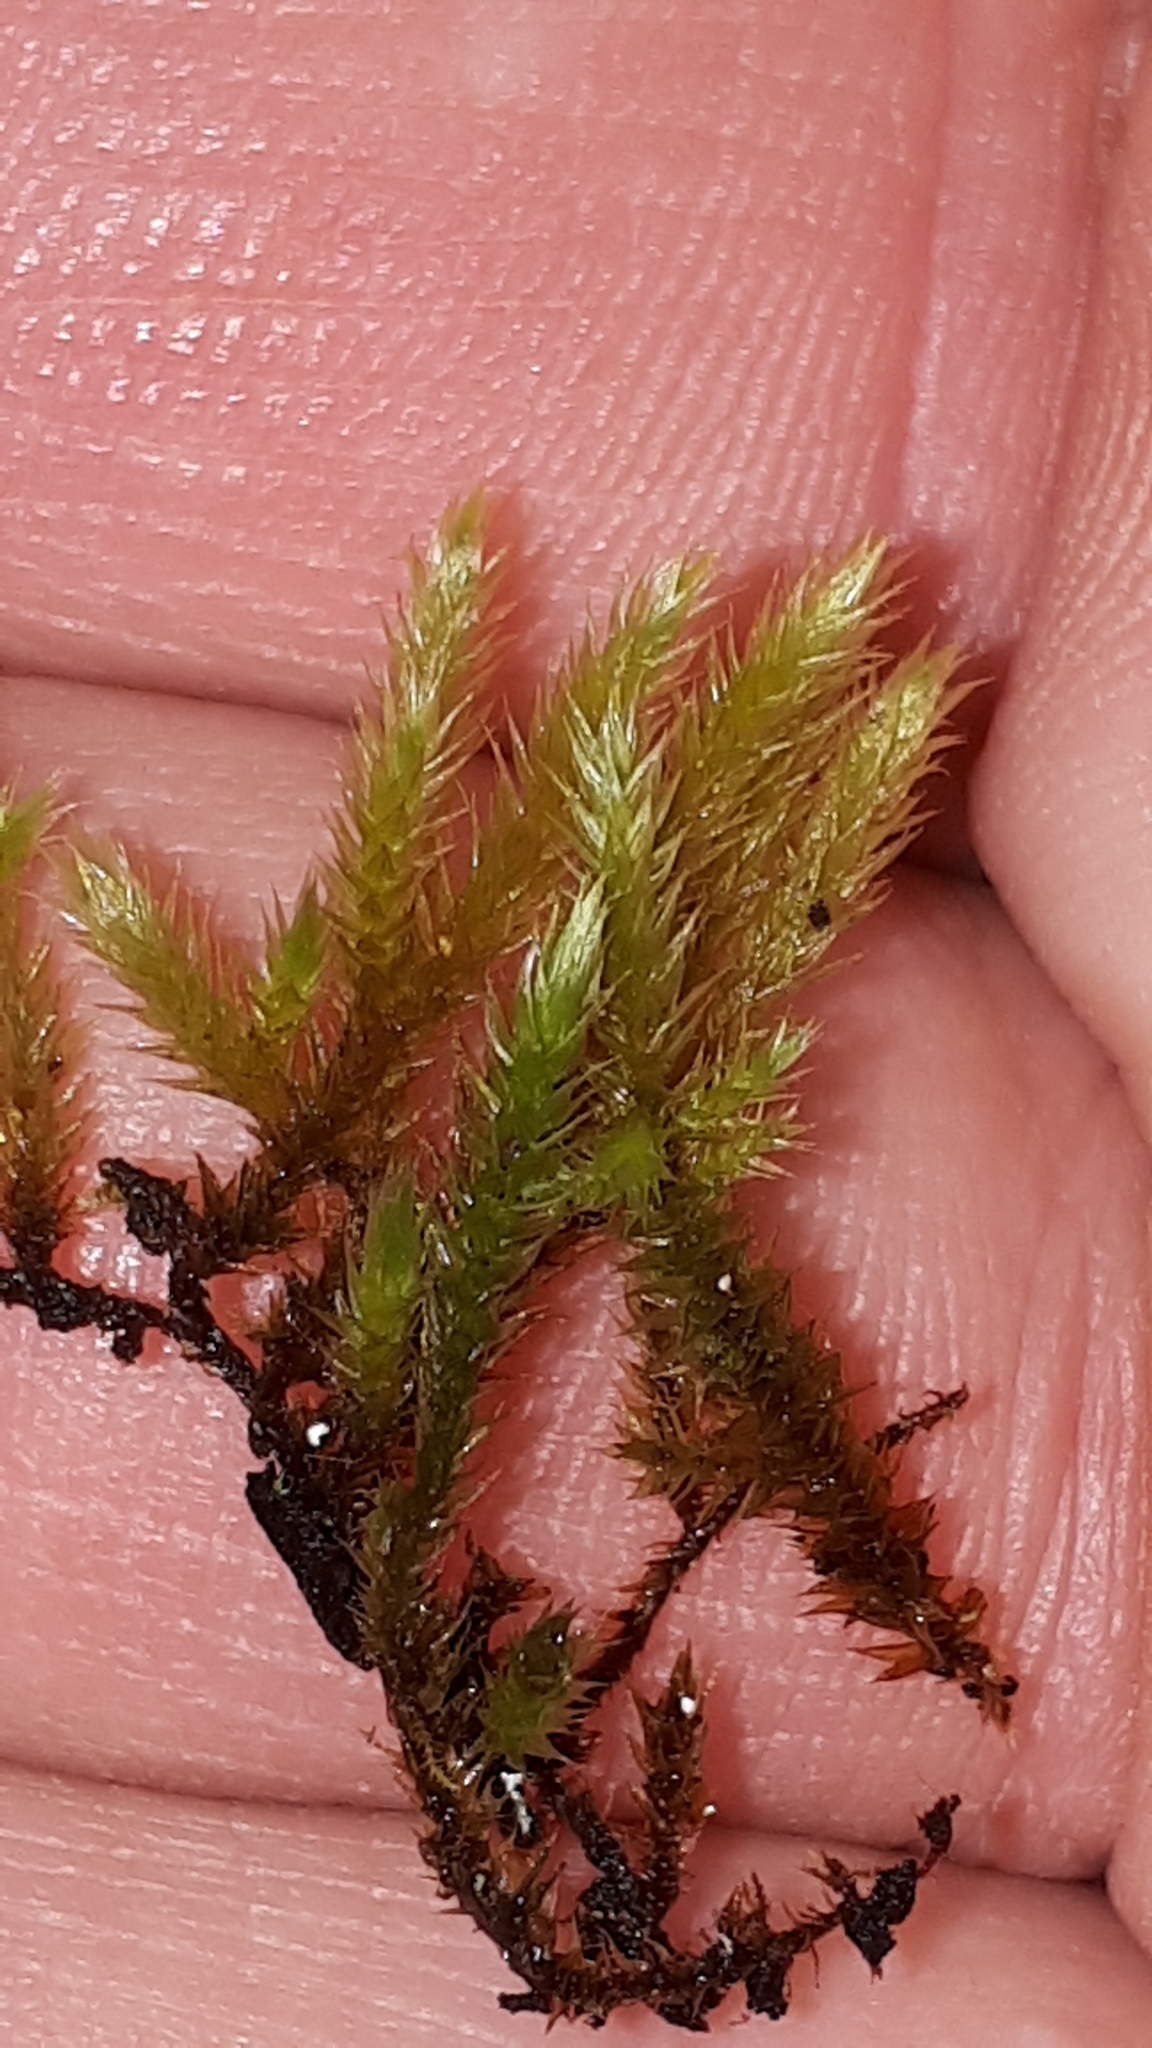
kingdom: Plantae
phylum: Bryophyta
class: Bryopsida
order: Hypnales
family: Leucodontaceae
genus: Leucodon
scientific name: Leucodon sciuroides
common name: Squirrel-tail moss
